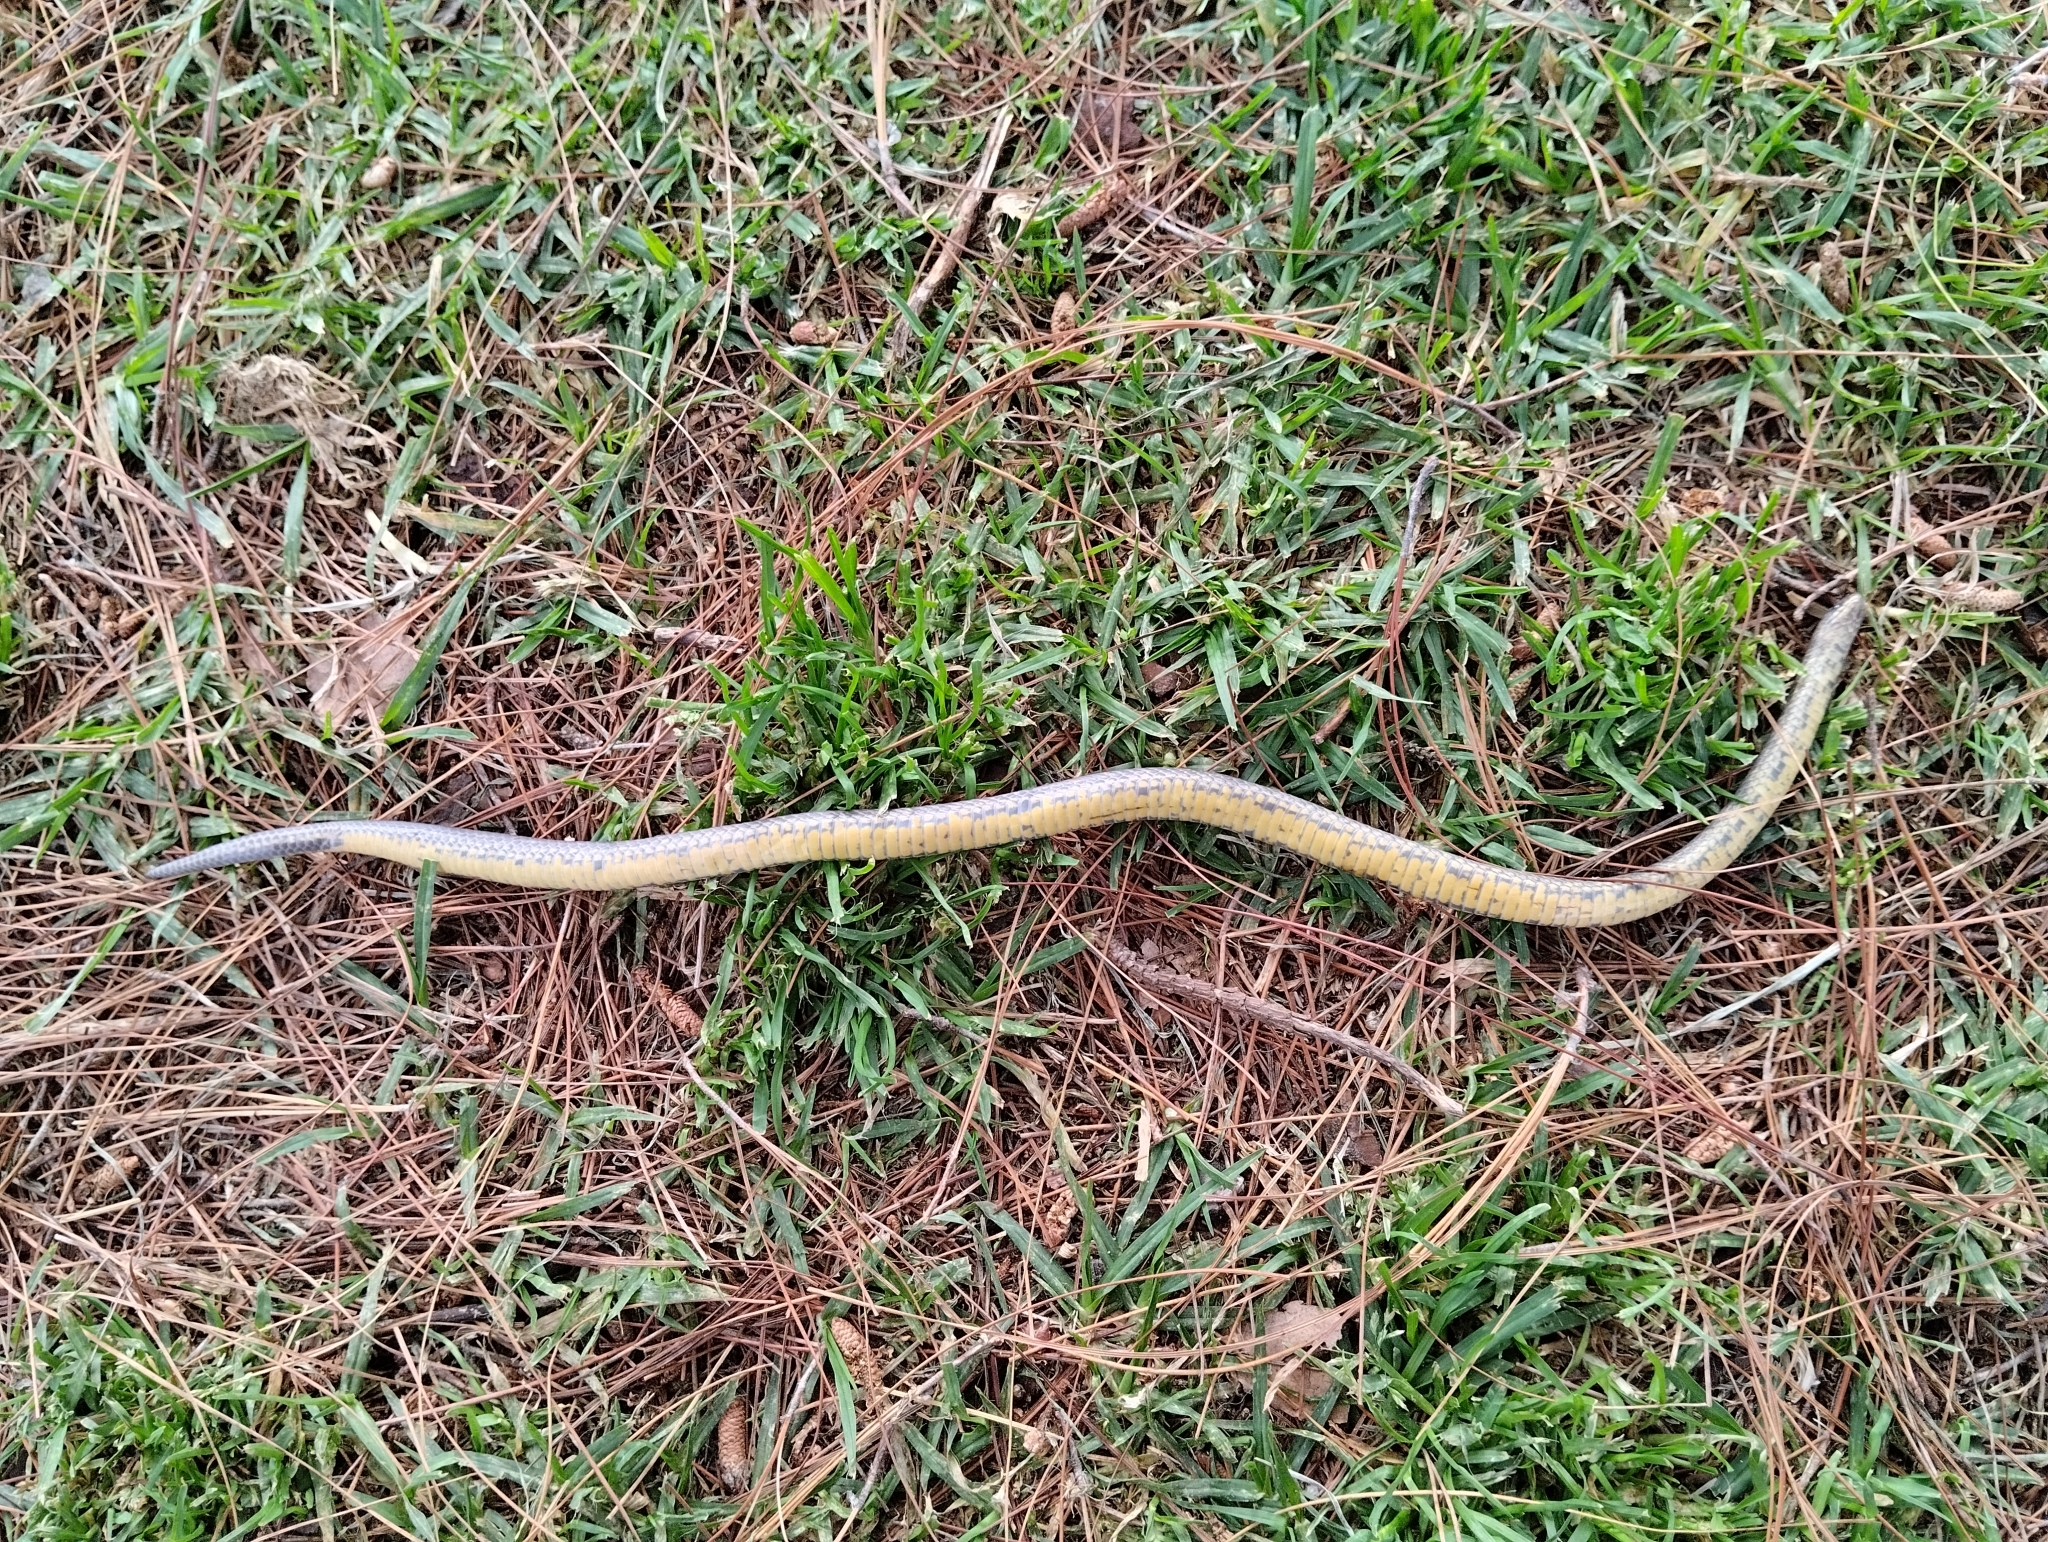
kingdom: Animalia
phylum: Chordata
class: Squamata
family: Colubridae
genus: Atractus
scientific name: Atractus crassicaudatus
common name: Thickhead ground snake
